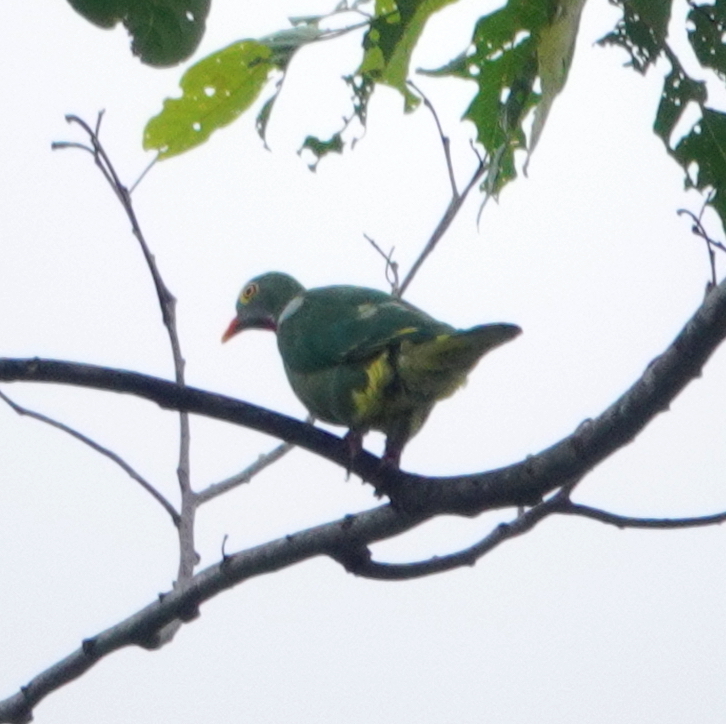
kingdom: Animalia
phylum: Chordata
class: Aves
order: Columbiformes
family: Columbidae
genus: Ptilinopus
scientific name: Ptilinopus viridis
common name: Claret-breasted fruit dove
